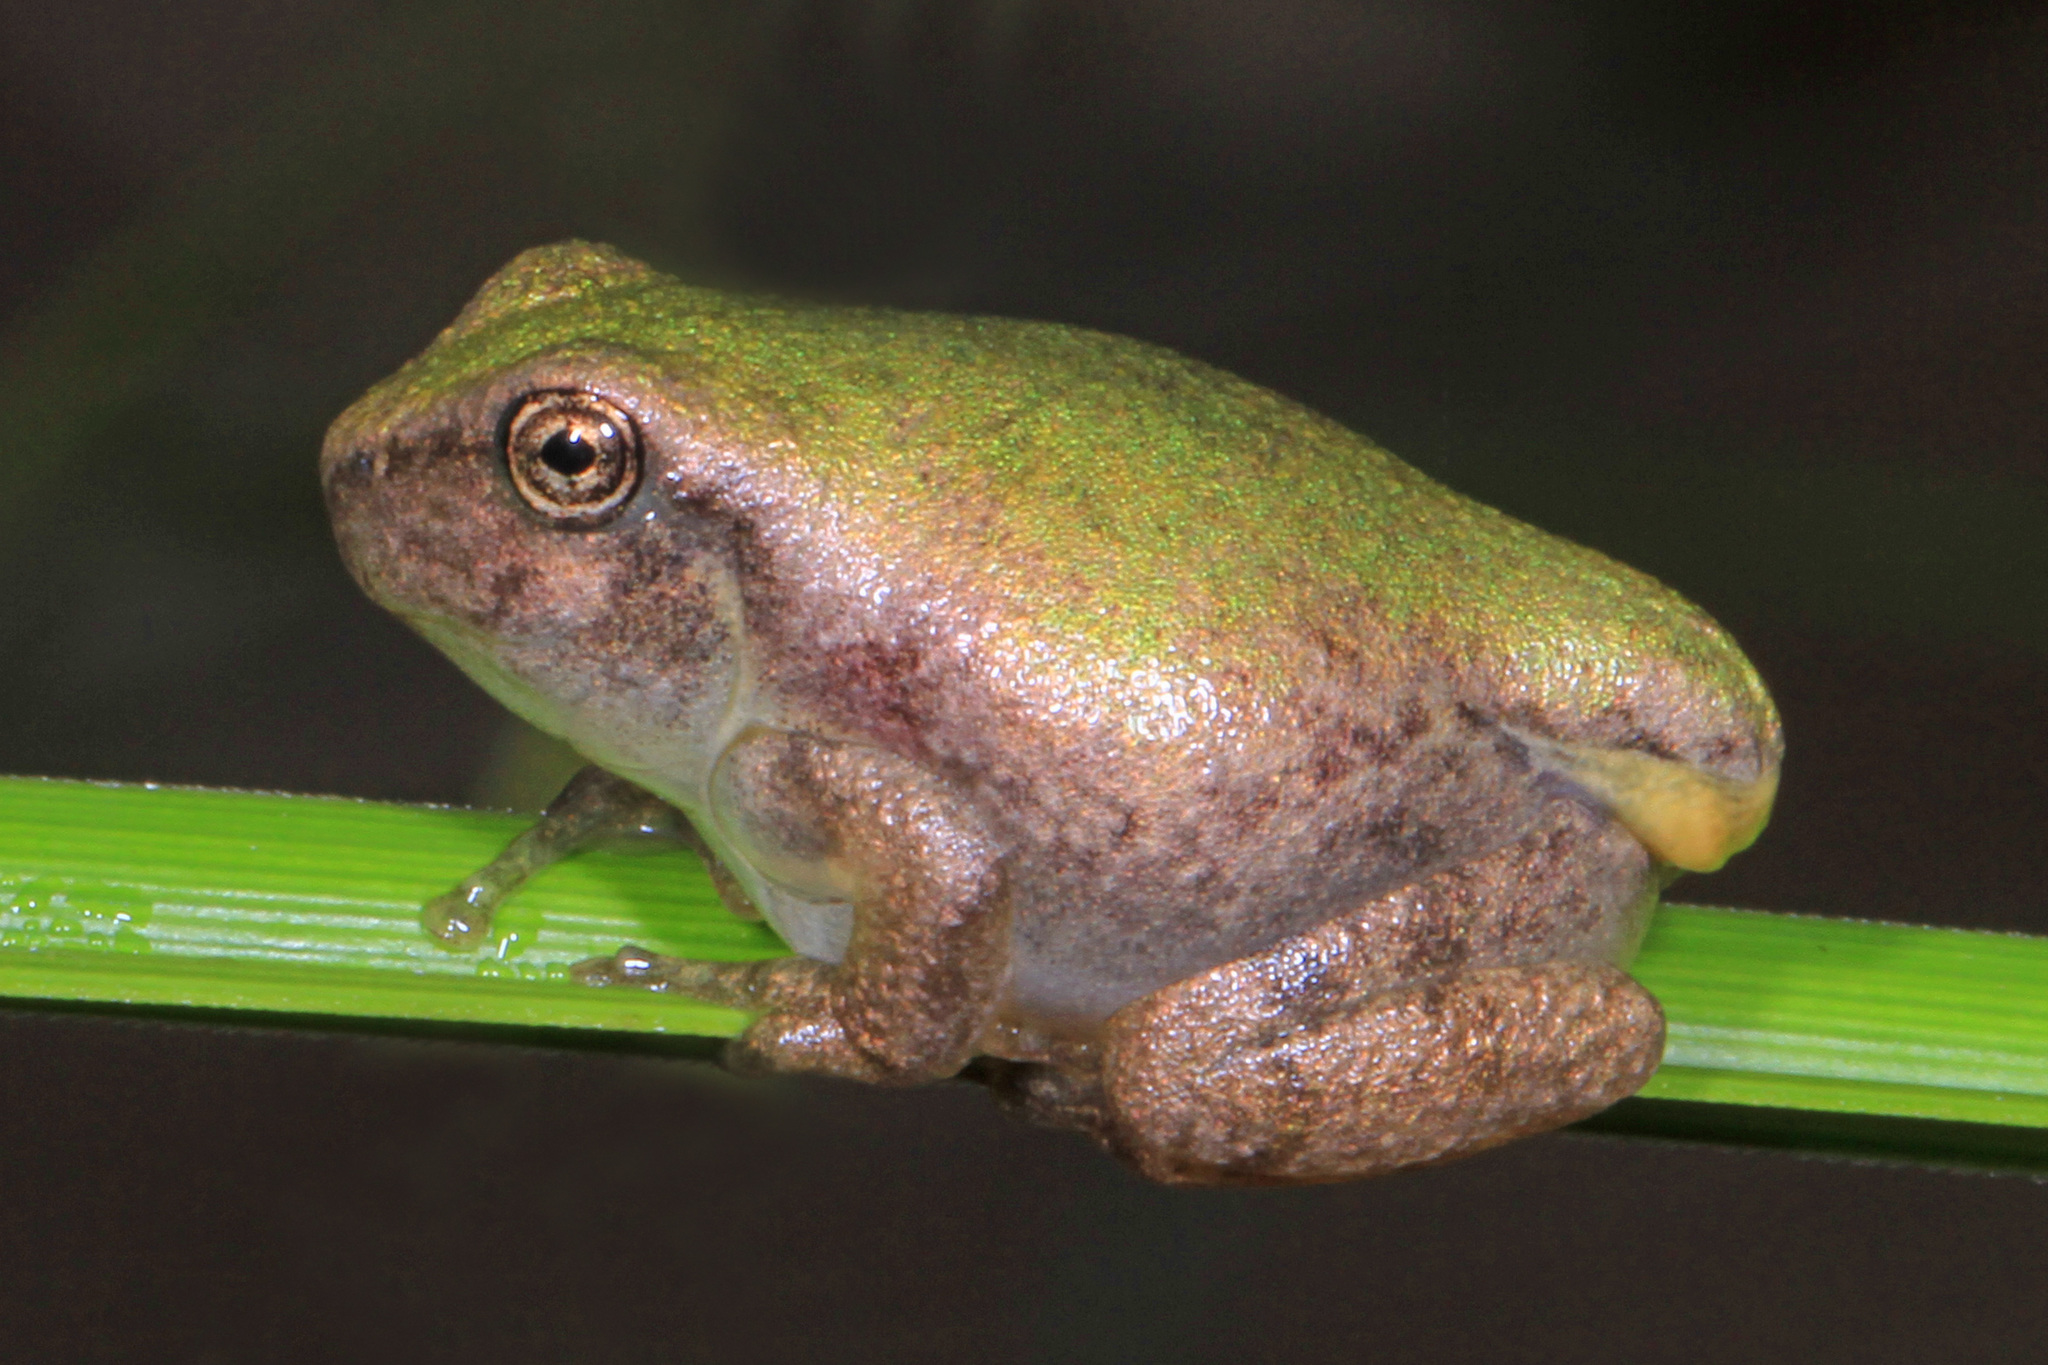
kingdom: Animalia
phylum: Chordata
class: Amphibia
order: Anura
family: Hylidae
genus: Dryophytes
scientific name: Dryophytes chrysoscelis
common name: Cope's gray treefrog
